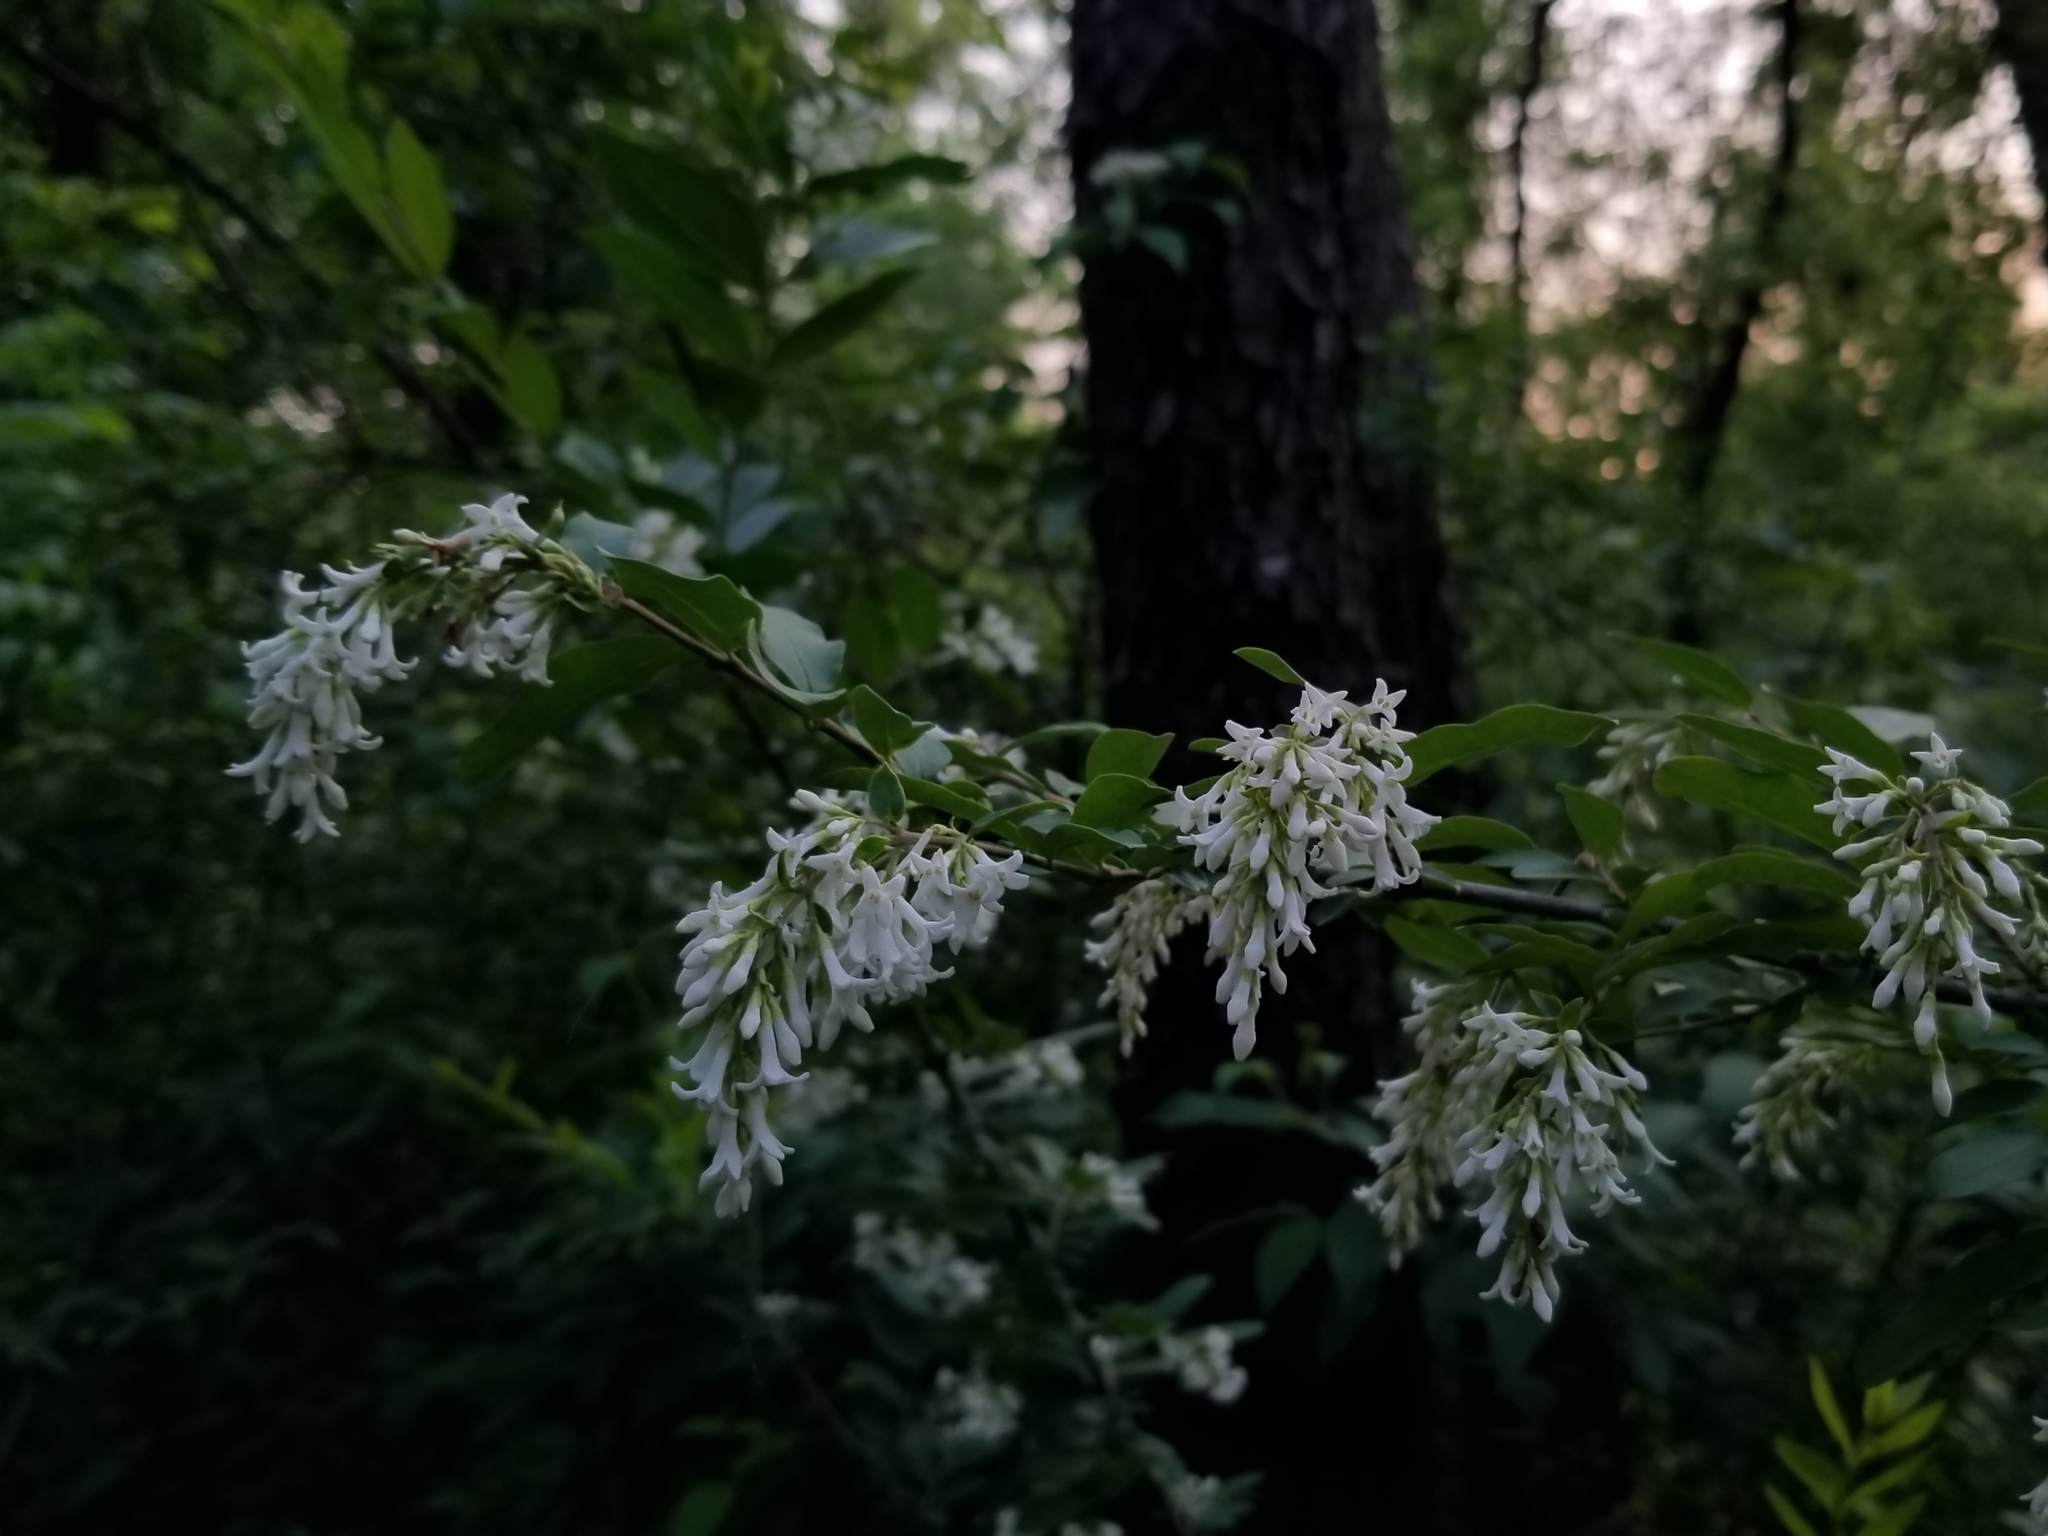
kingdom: Plantae
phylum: Tracheophyta
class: Magnoliopsida
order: Lamiales
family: Oleaceae
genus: Ligustrum
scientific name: Ligustrum obtusifolium
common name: Border privet
